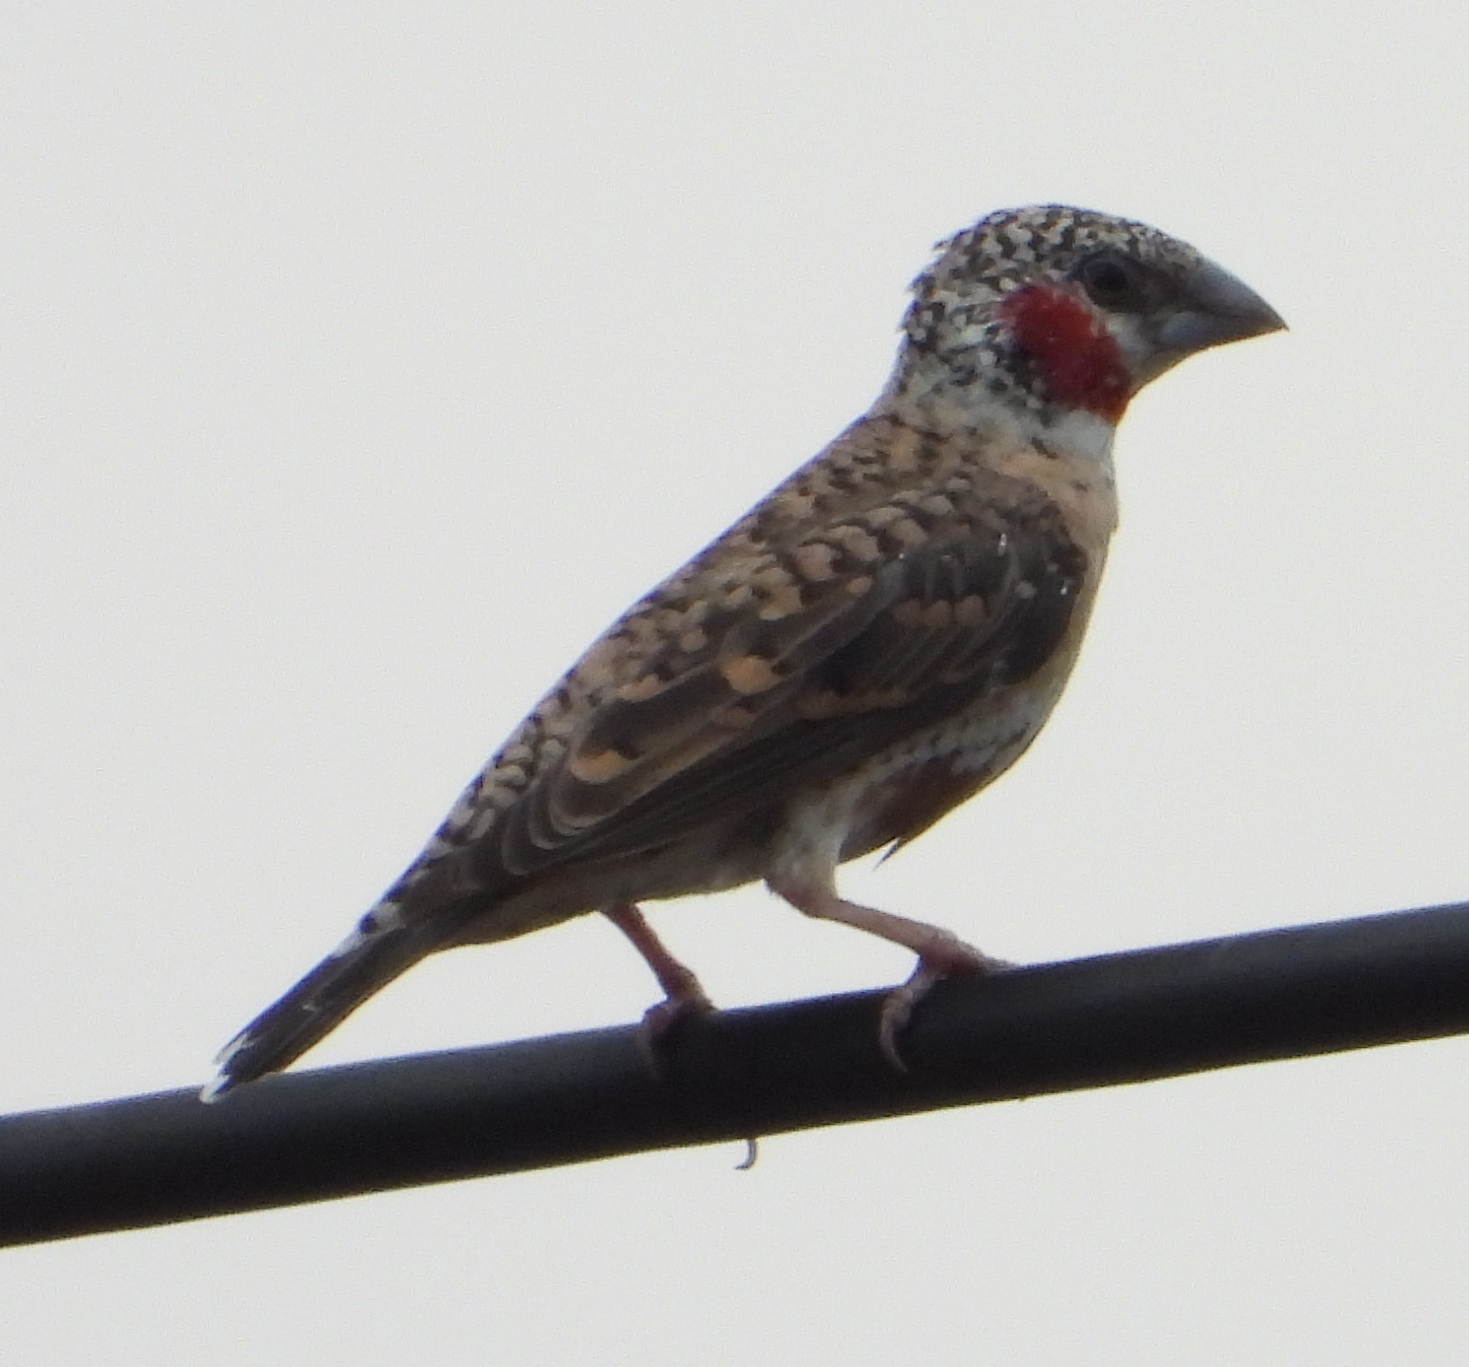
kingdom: Animalia
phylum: Chordata
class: Aves
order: Passeriformes
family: Estrildidae
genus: Amadina
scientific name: Amadina fasciata
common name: Cut-throat finch
